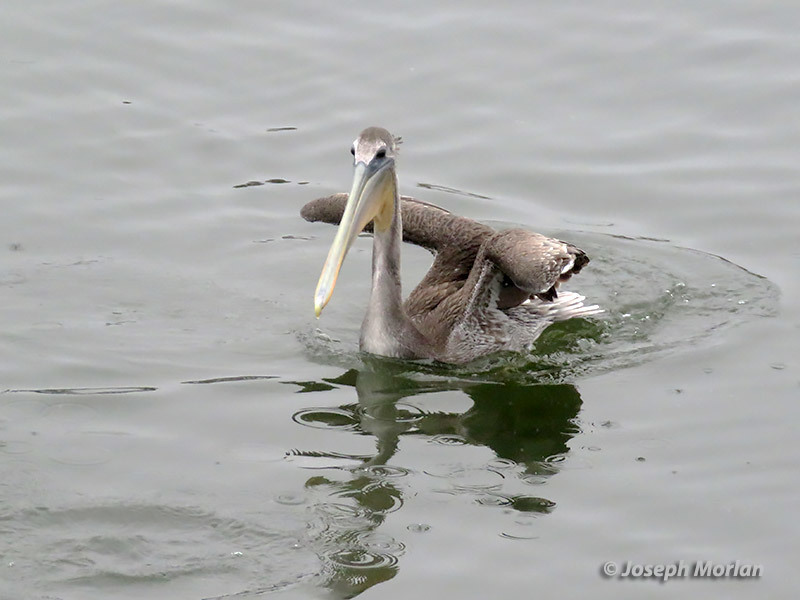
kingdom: Animalia
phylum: Chordata
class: Aves
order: Pelecaniformes
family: Pelecanidae
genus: Pelecanus
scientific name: Pelecanus occidentalis
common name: Brown pelican
